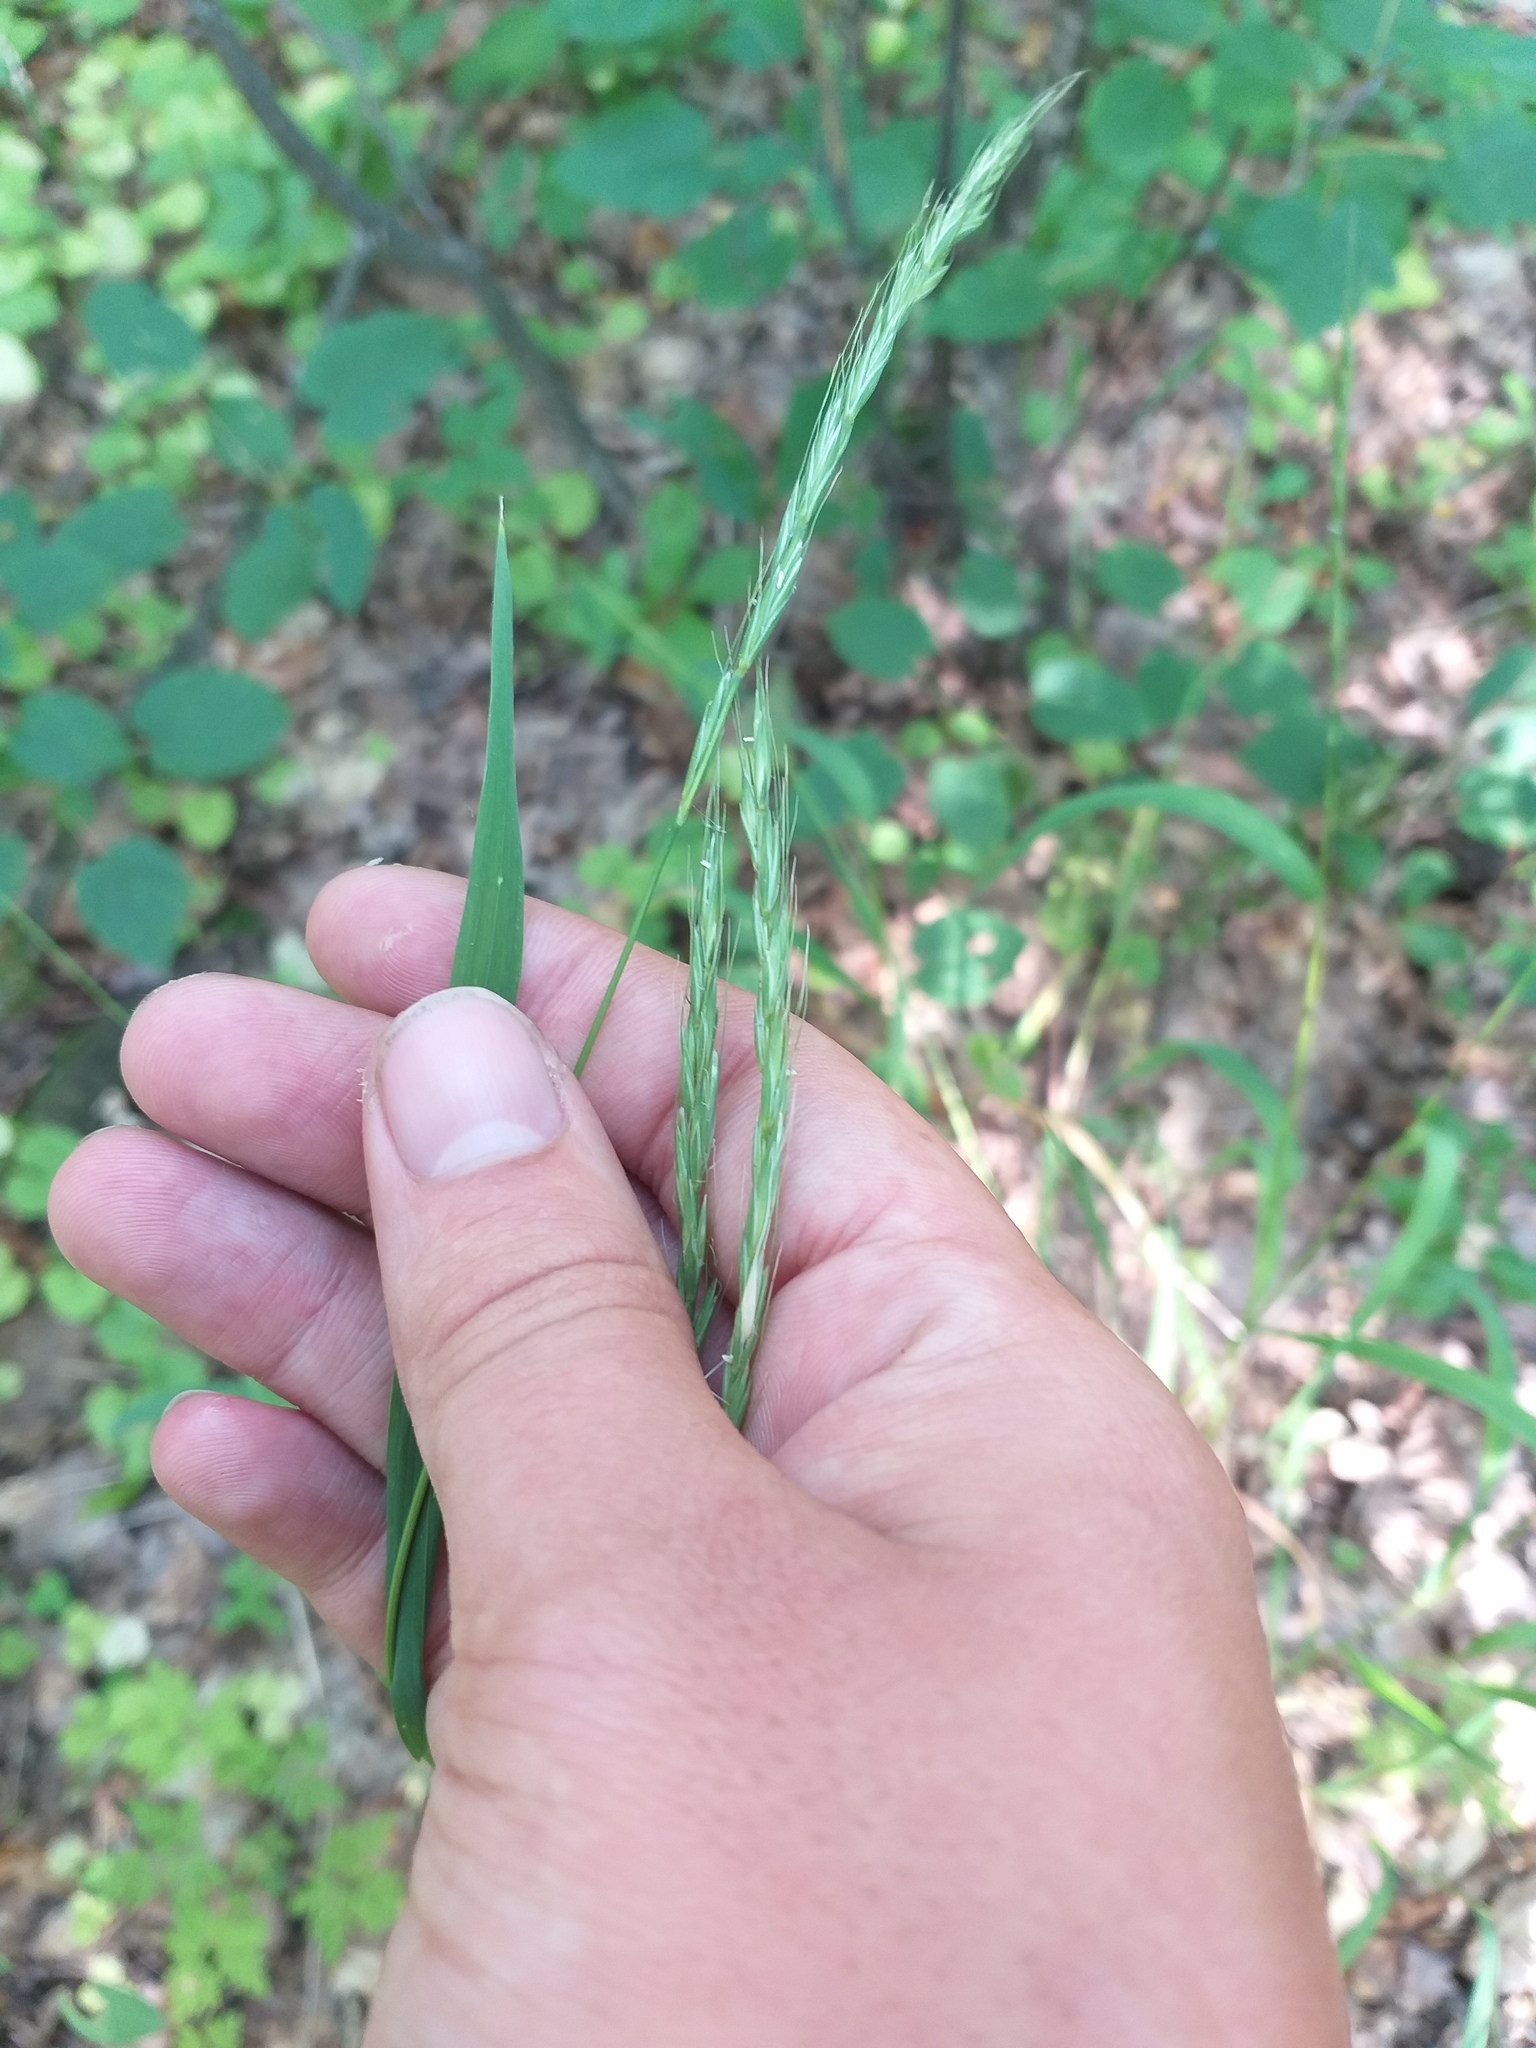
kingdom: Plantae
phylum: Tracheophyta
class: Liliopsida
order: Poales
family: Poaceae
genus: Elymus
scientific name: Elymus caninus
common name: Bearded couch
